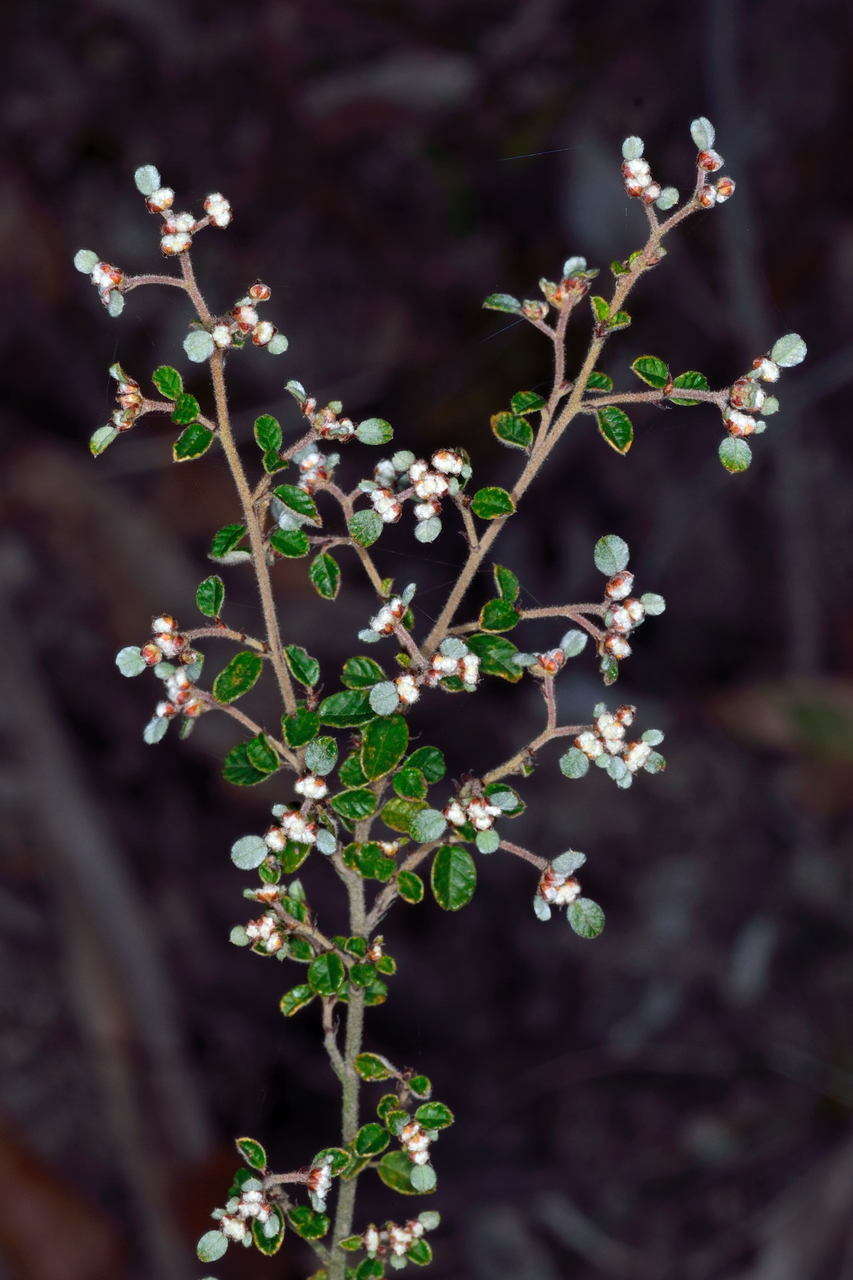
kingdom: Plantae
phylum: Tracheophyta
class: Magnoliopsida
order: Rosales
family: Rhamnaceae
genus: Spyridium
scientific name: Spyridium parvifolium
